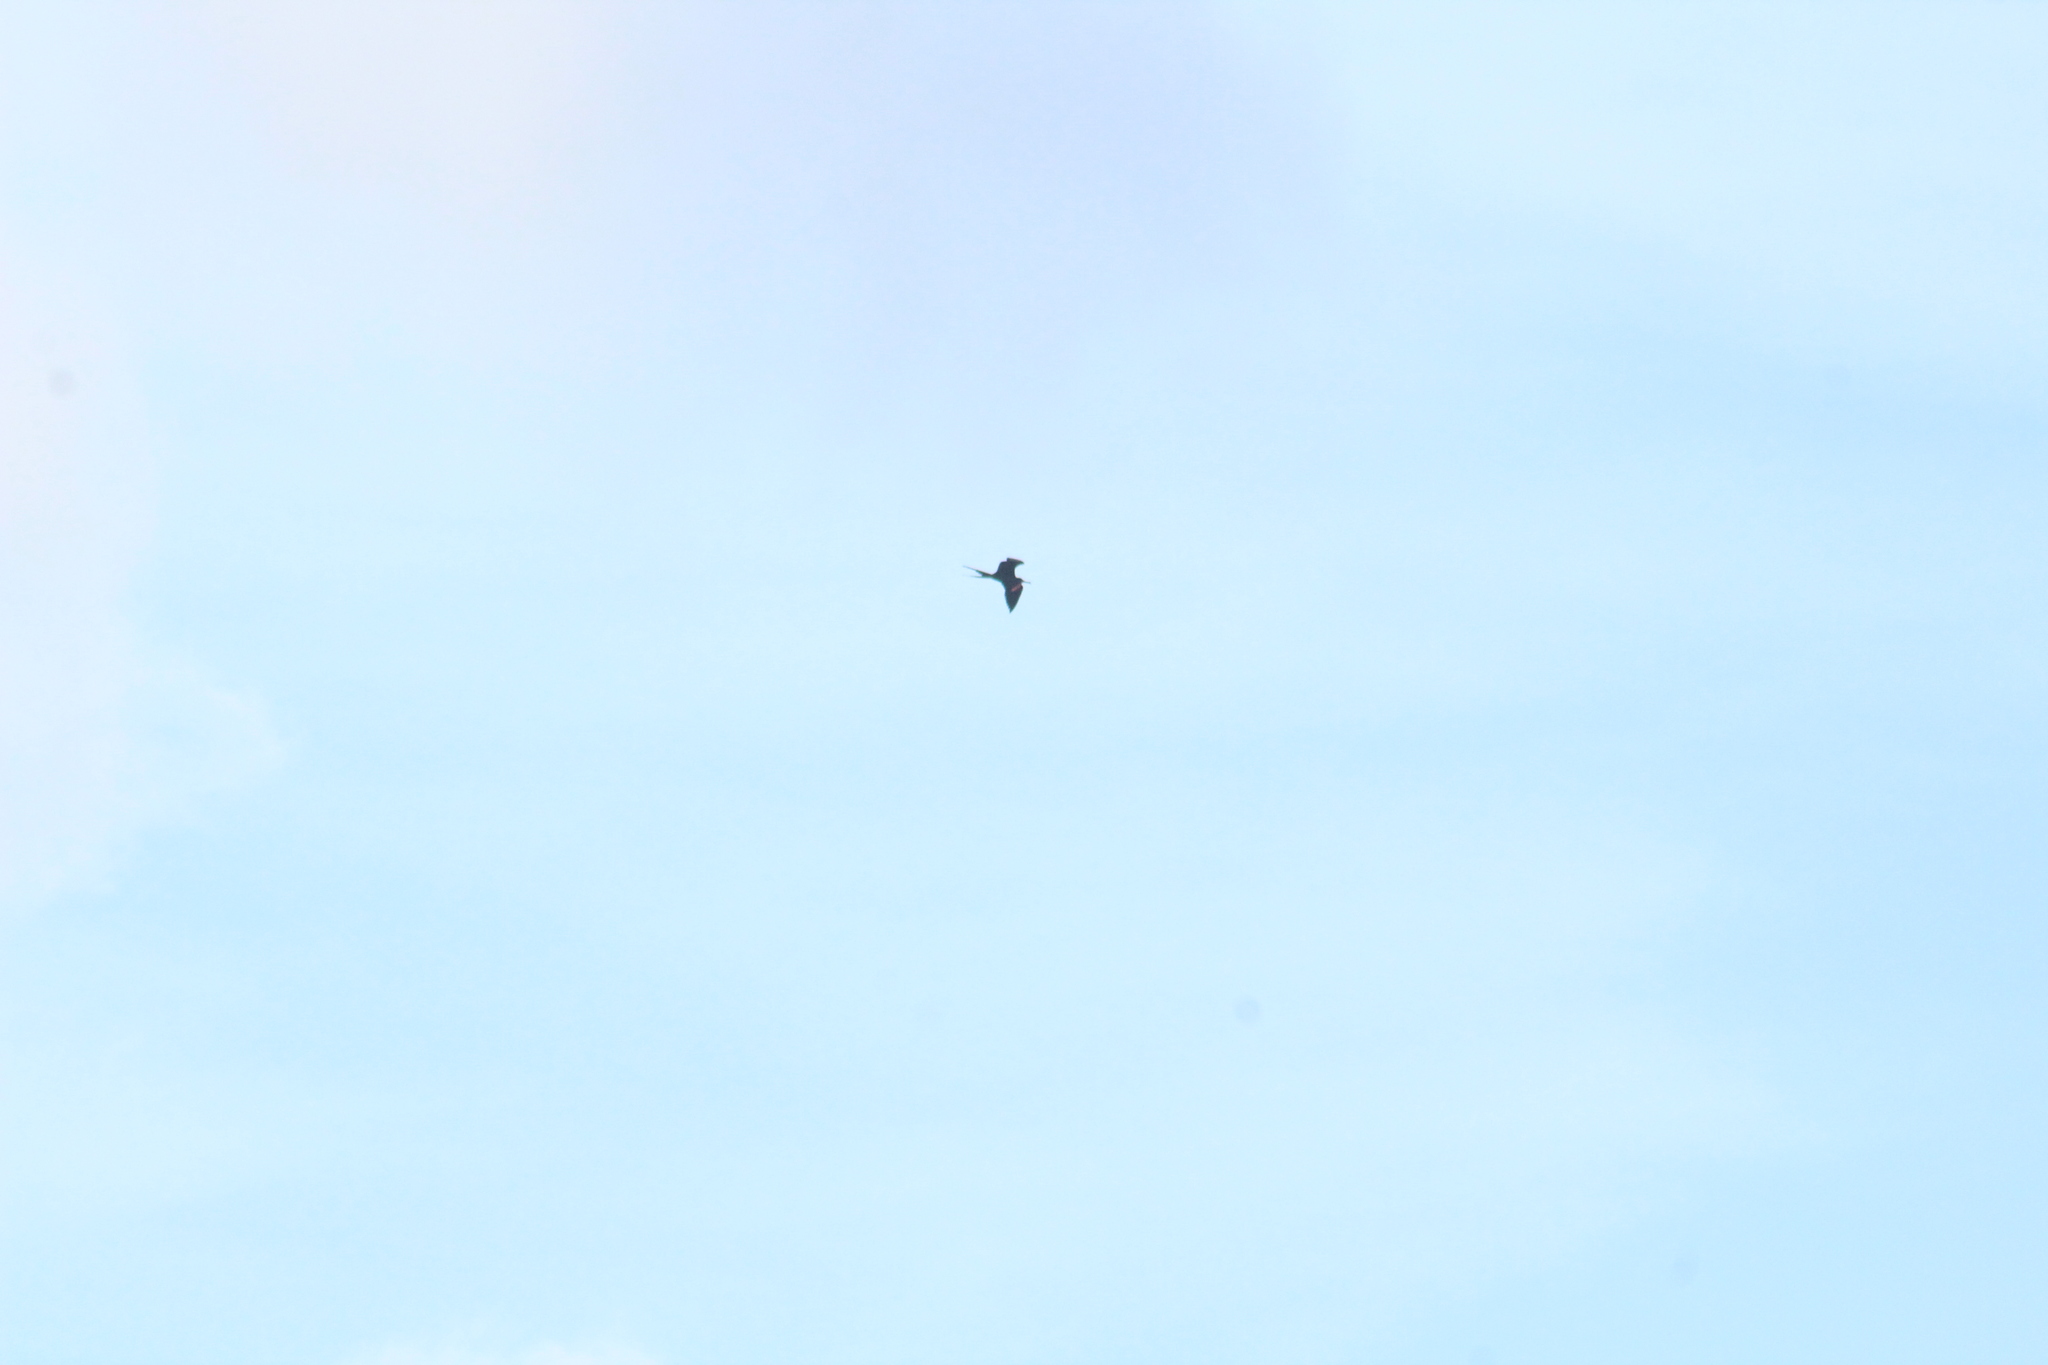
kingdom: Animalia
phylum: Chordata
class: Aves
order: Suliformes
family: Fregatidae
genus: Fregata
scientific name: Fregata magnificens
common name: Magnificent frigatebird
